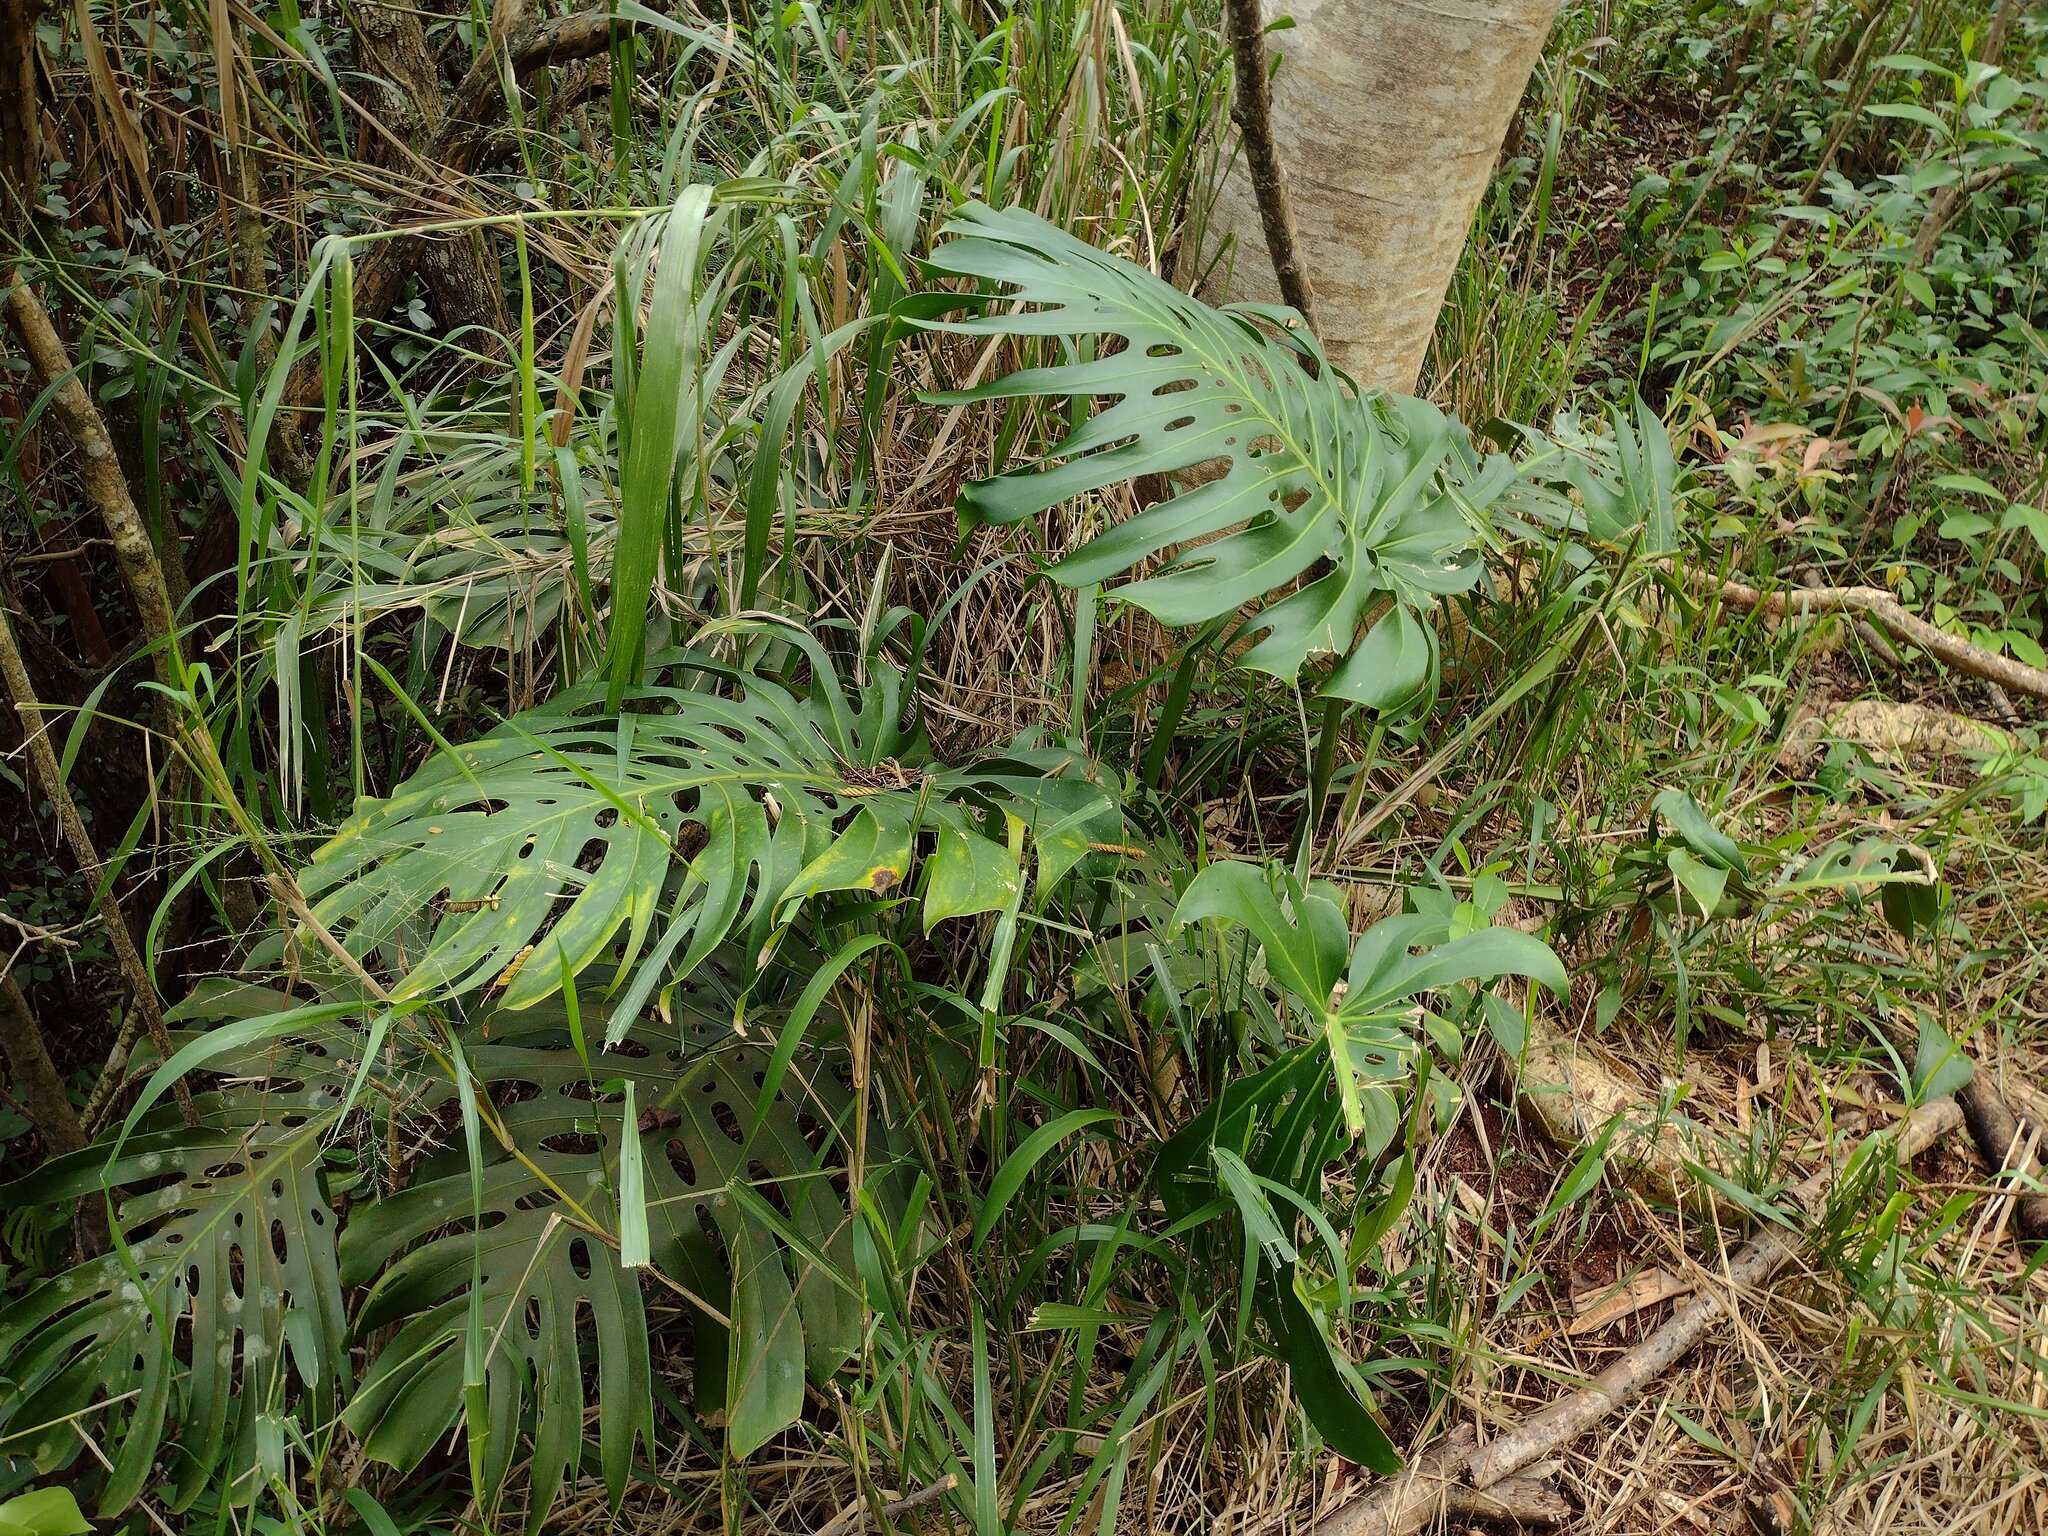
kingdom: Plantae
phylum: Tracheophyta
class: Liliopsida
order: Alismatales
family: Araceae
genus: Monstera
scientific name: Monstera deliciosa
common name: Cut-leaf-philodendron
